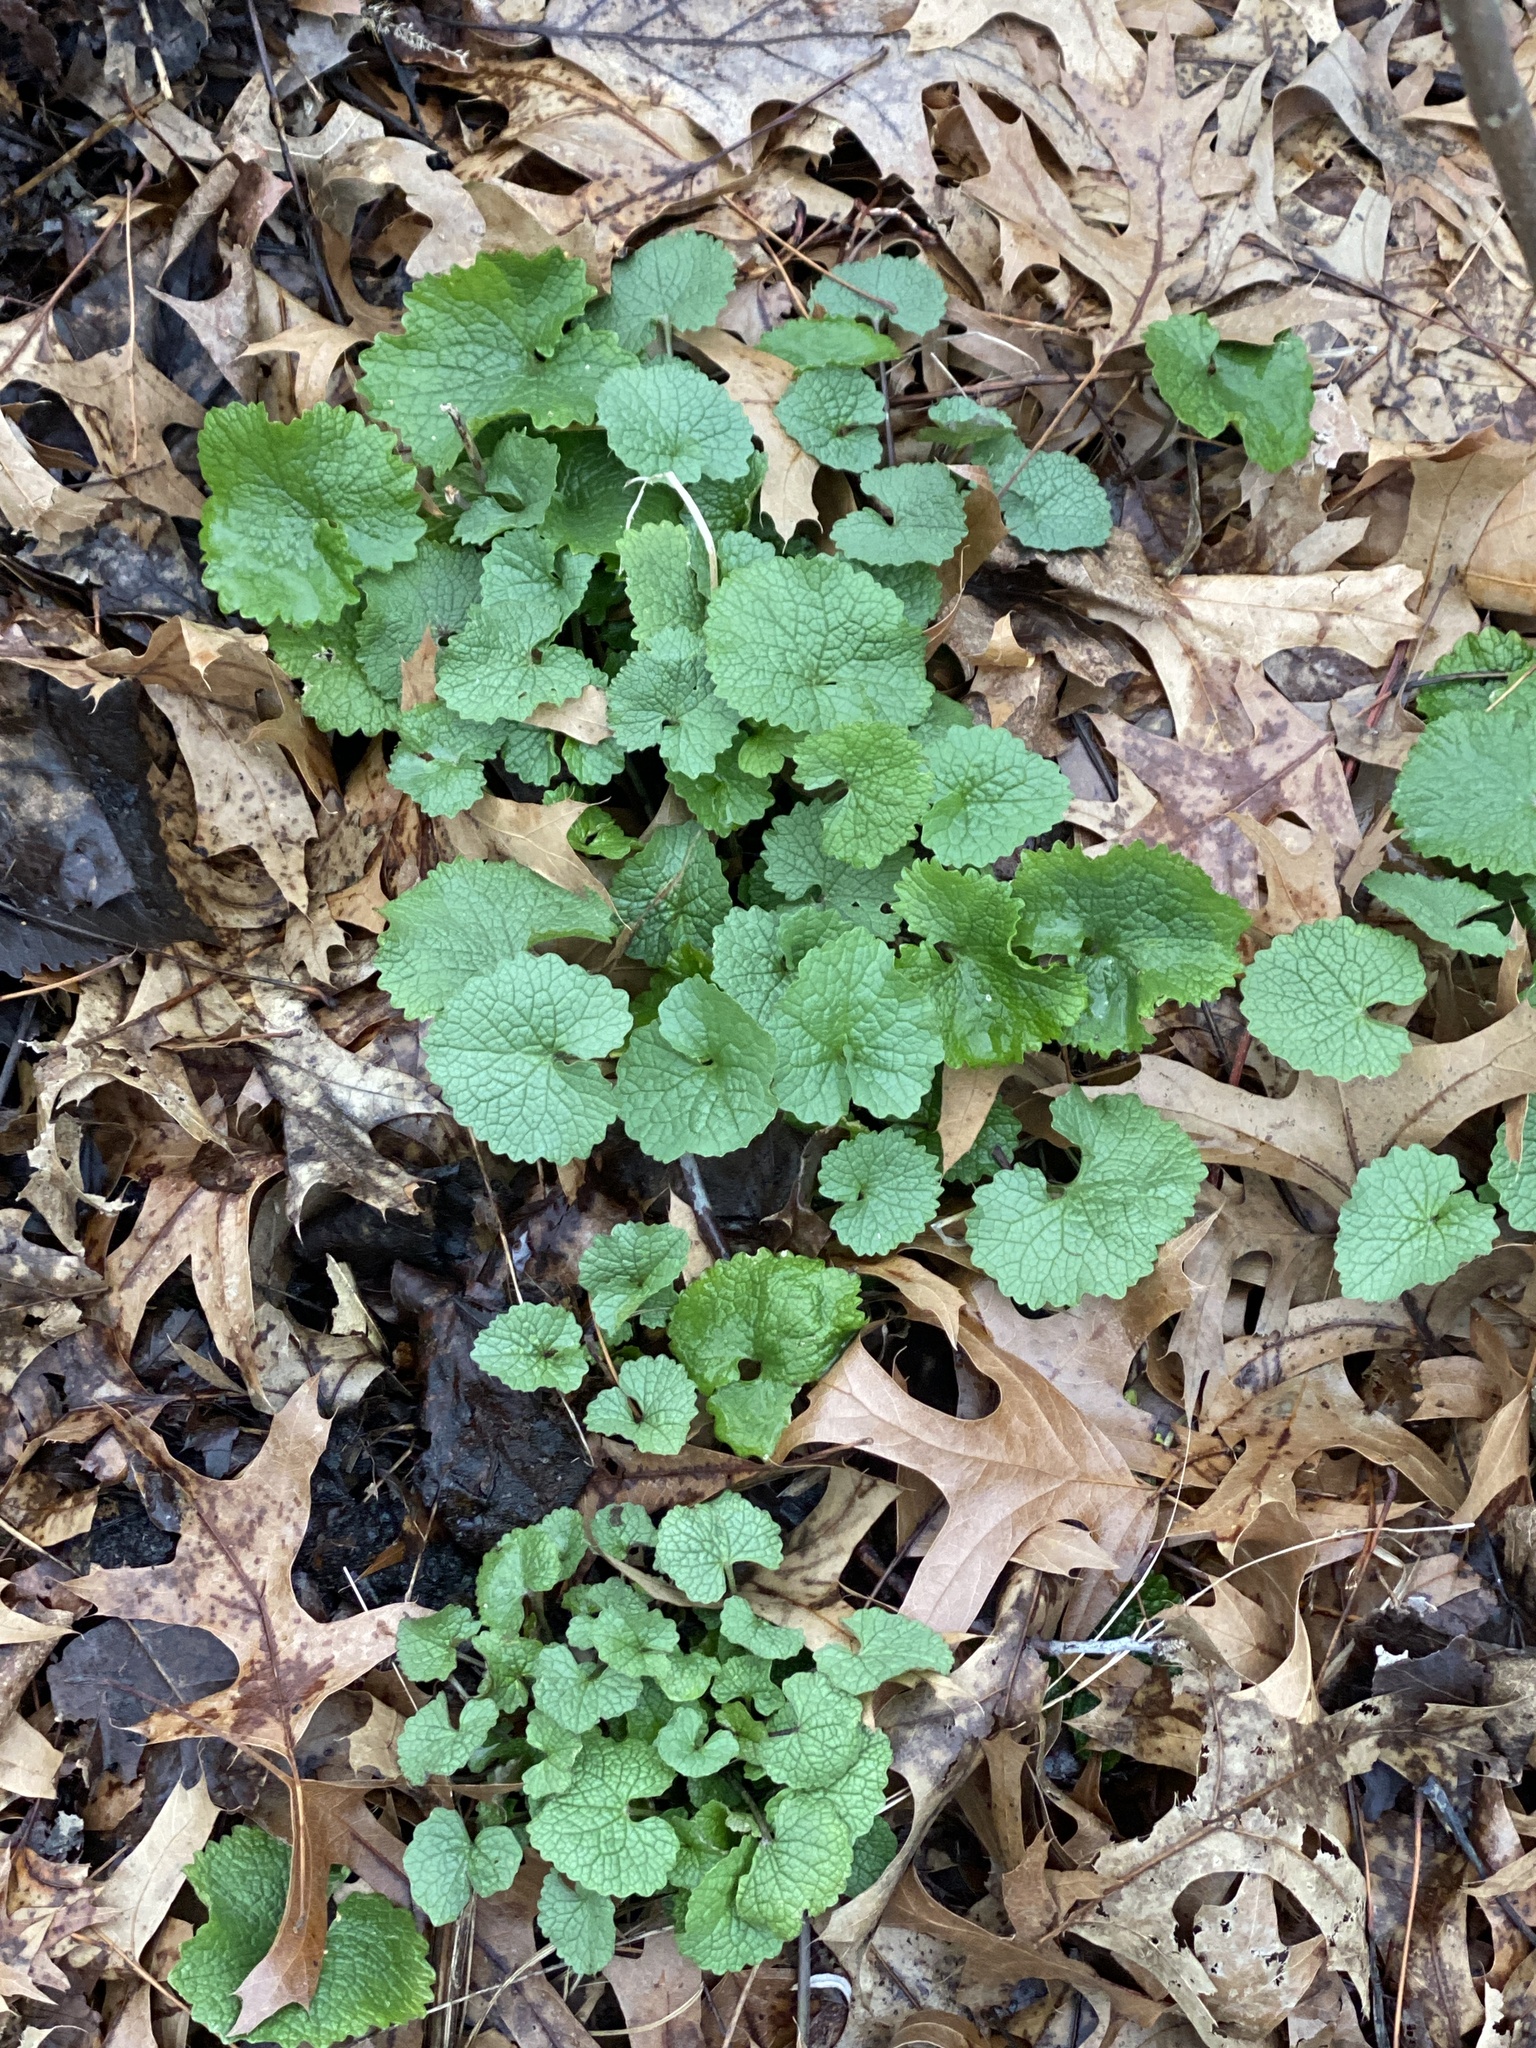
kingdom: Plantae
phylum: Tracheophyta
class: Magnoliopsida
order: Brassicales
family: Brassicaceae
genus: Alliaria
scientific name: Alliaria petiolata
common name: Garlic mustard
